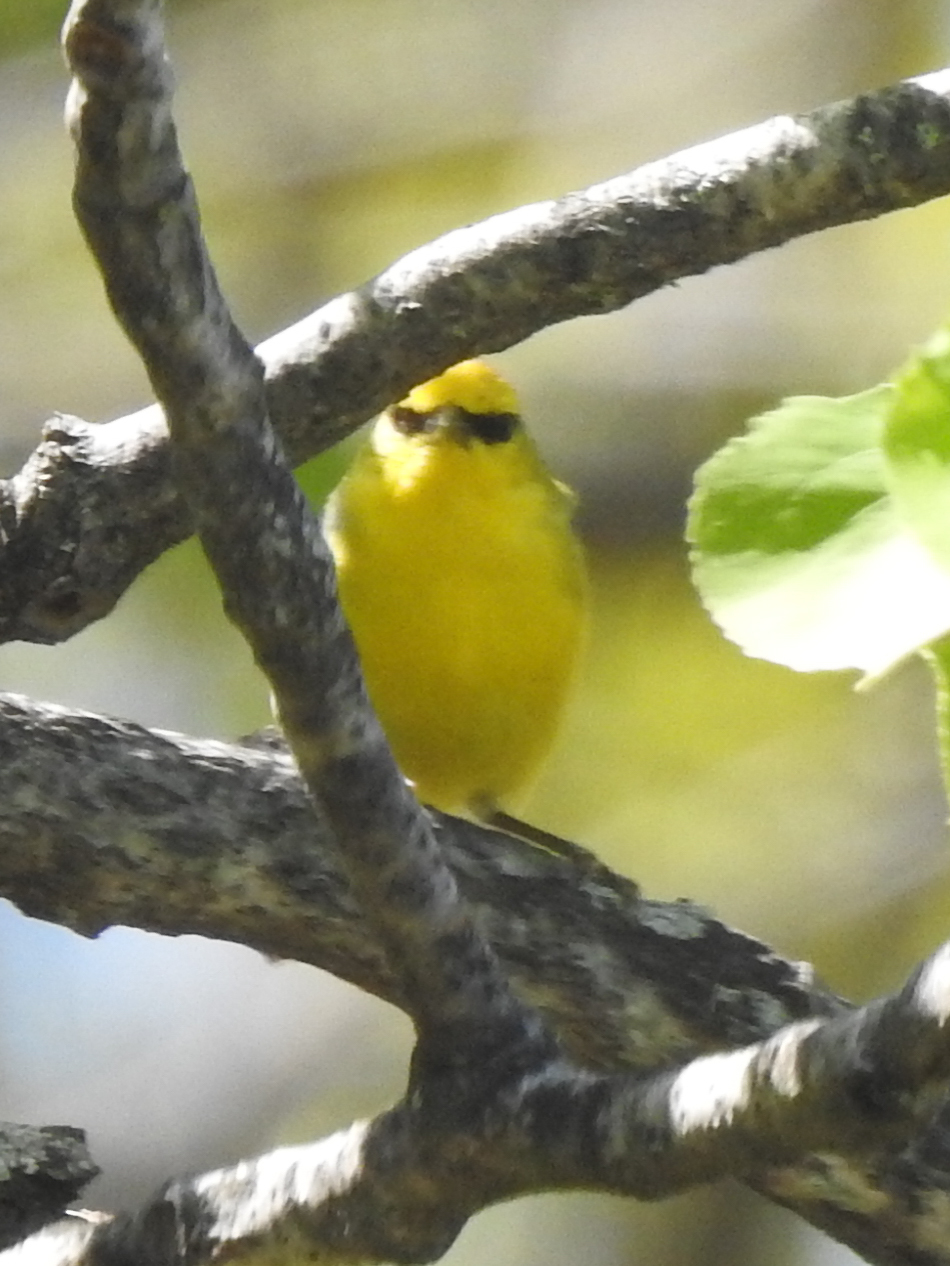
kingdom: Animalia
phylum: Chordata
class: Aves
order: Passeriformes
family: Parulidae
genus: Vermivora
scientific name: Vermivora cyanoptera
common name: Blue-winged warbler
